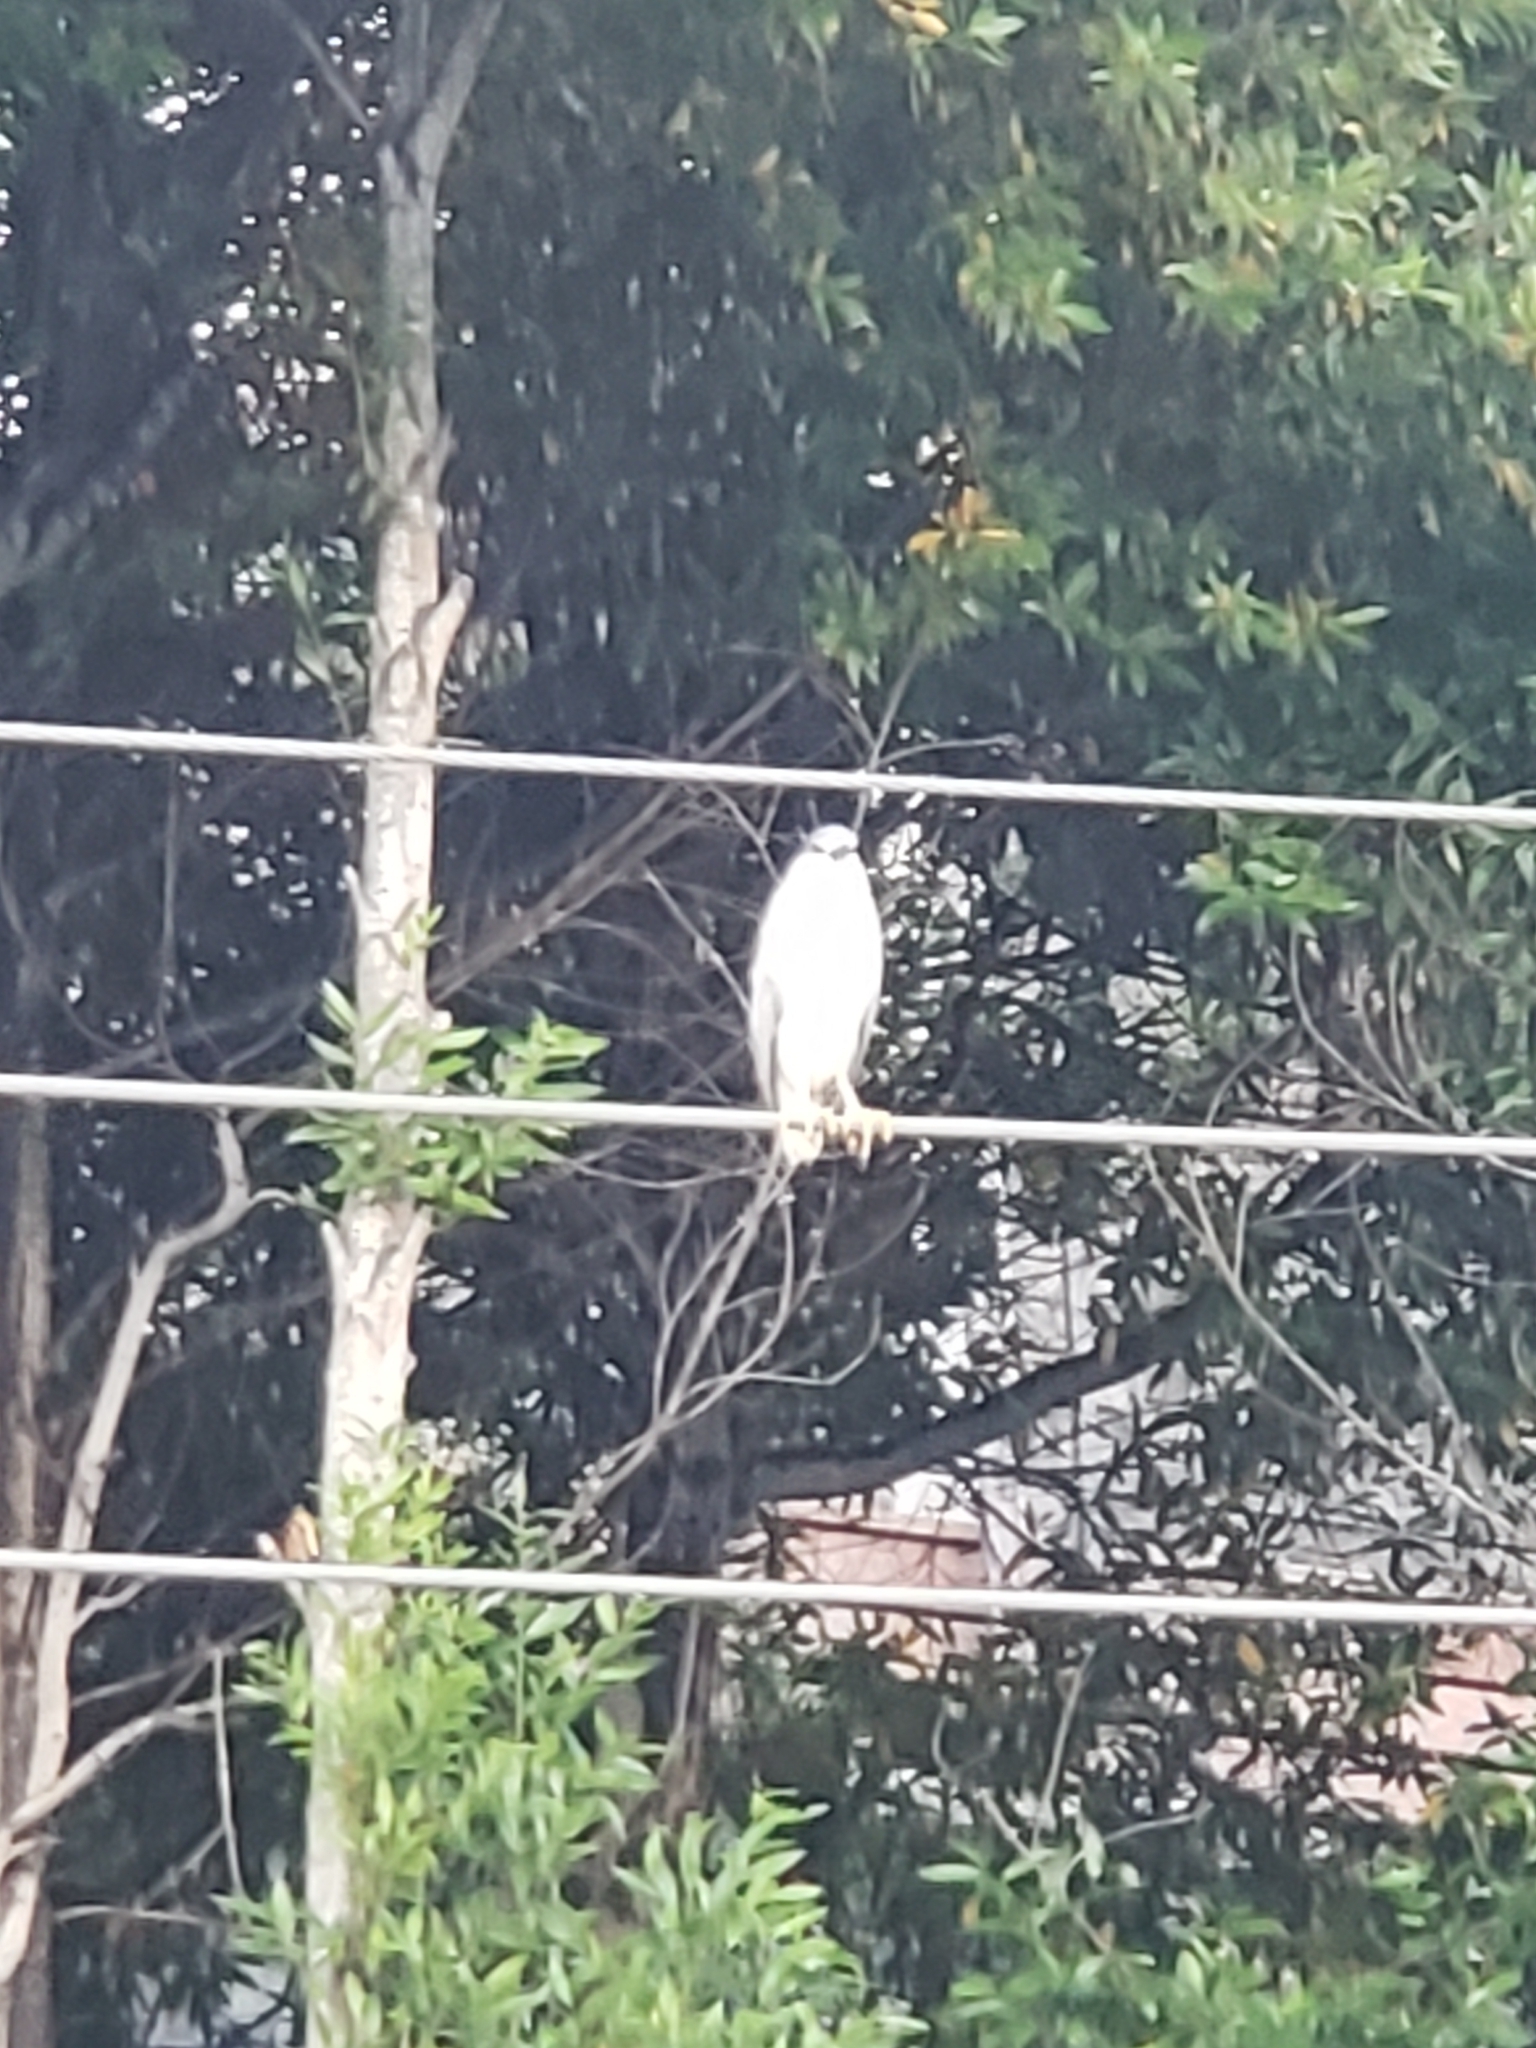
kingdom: Animalia
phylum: Chordata
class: Aves
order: Pelecaniformes
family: Ardeidae
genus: Nycticorax
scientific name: Nycticorax nycticorax
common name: Black-crowned night heron
